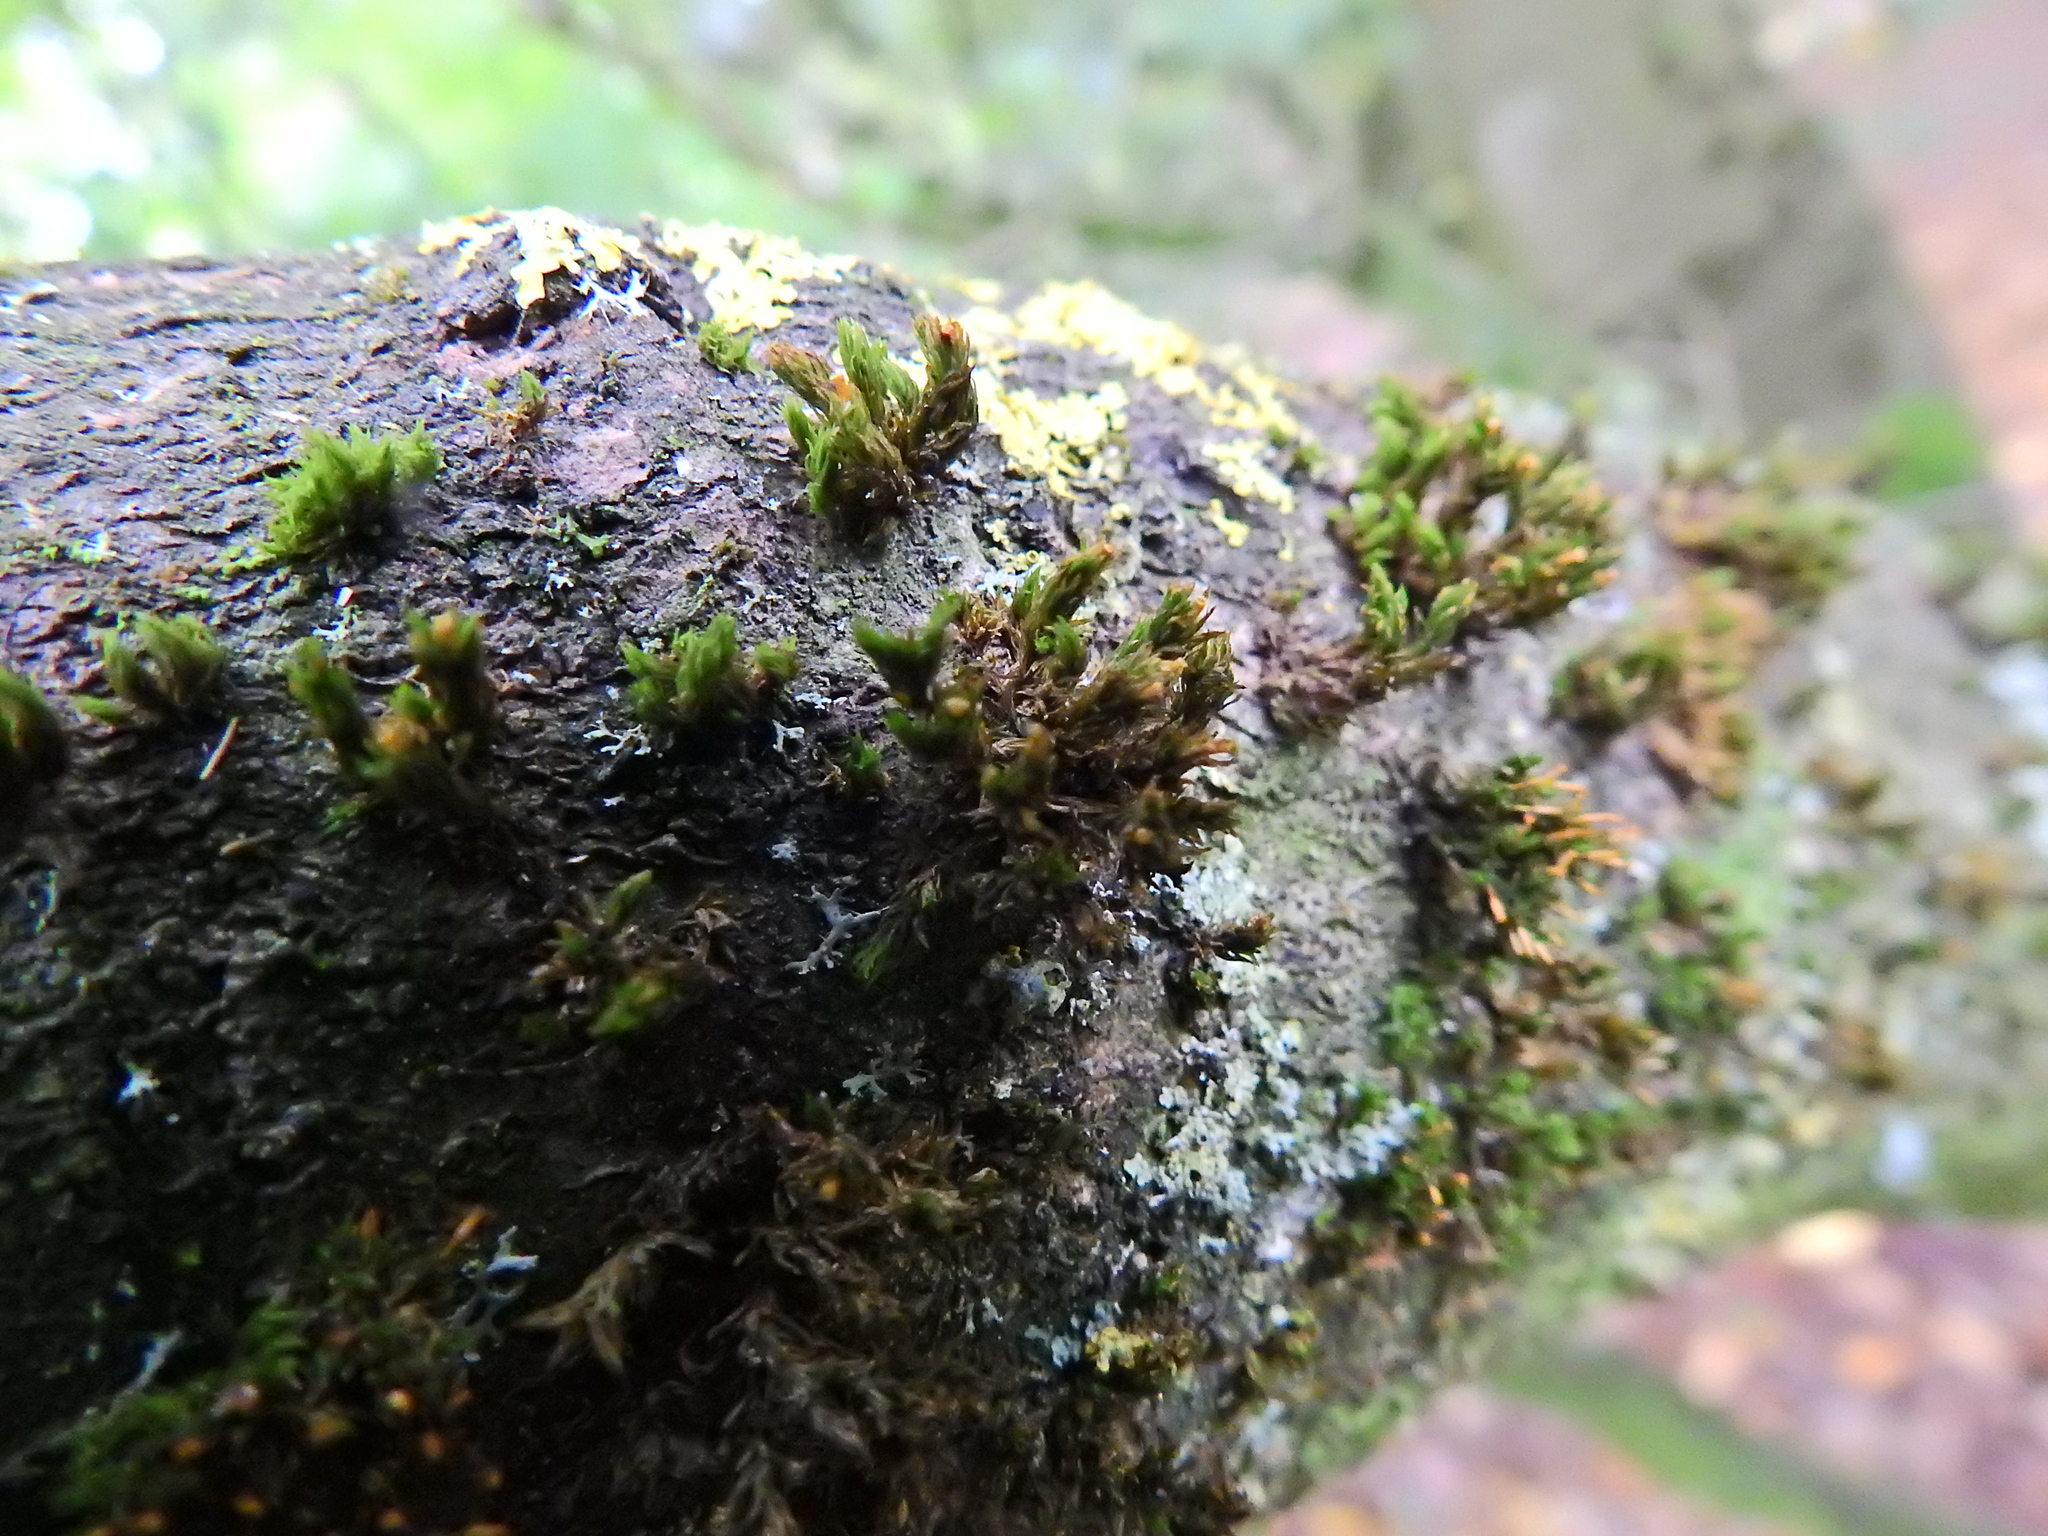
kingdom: Plantae
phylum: Bryophyta
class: Bryopsida
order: Orthotrichales
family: Orthotrichaceae
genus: Lewinskya
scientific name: Lewinskya affinis
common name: Wood bristle-moss
